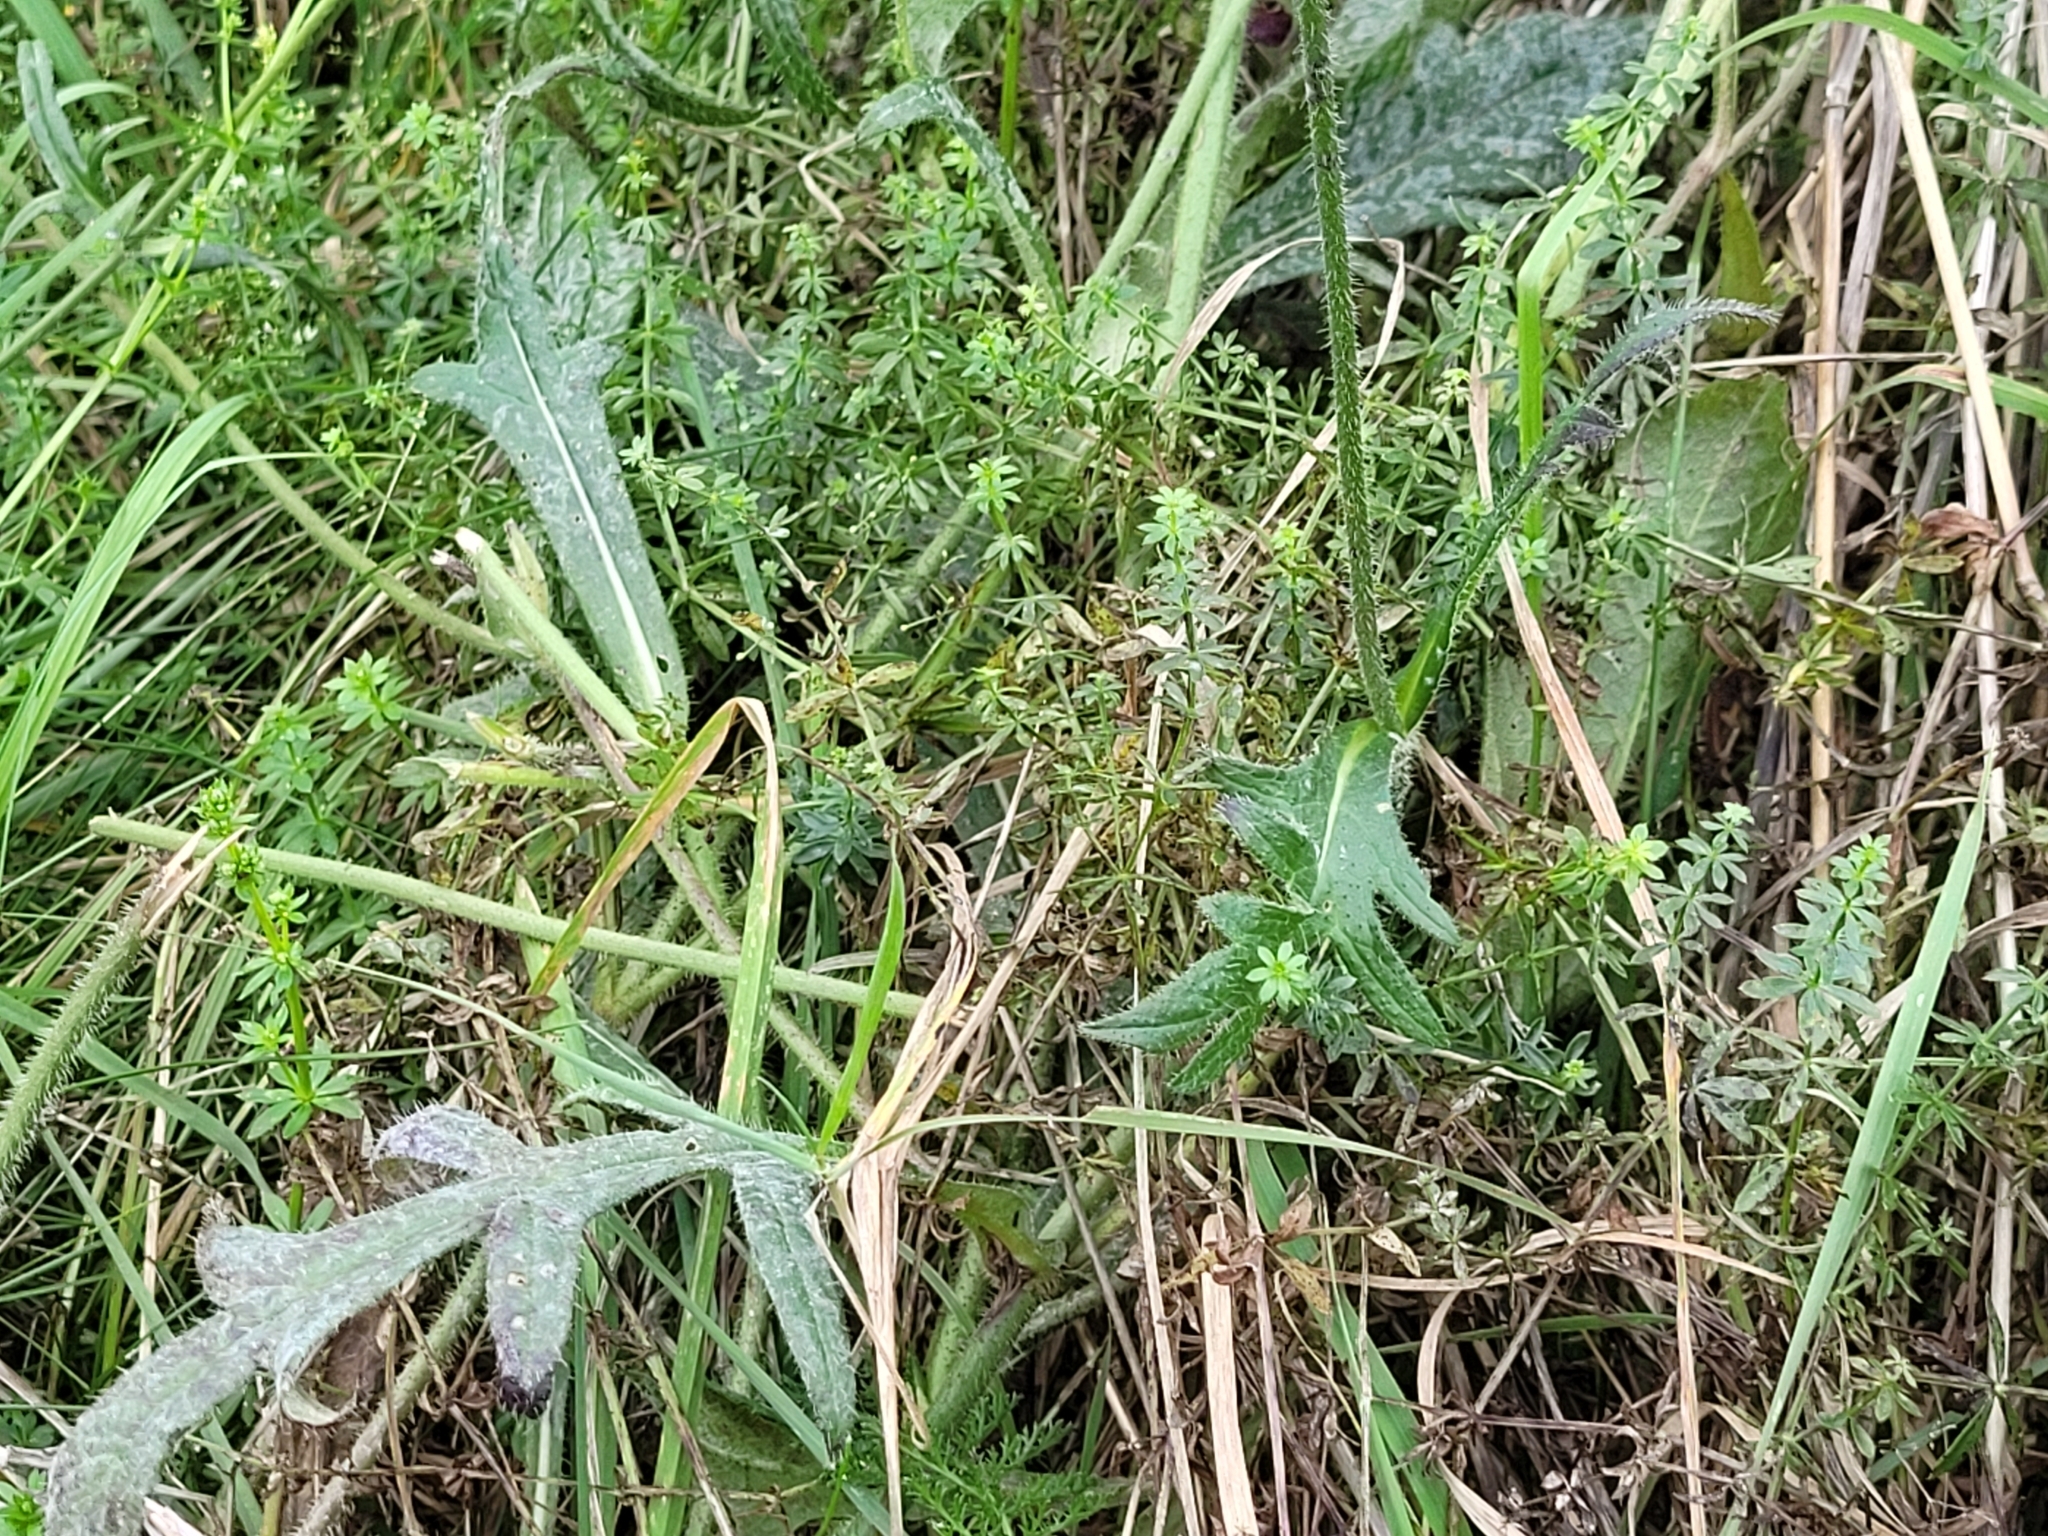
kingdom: Plantae
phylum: Tracheophyta
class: Magnoliopsida
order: Dipsacales
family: Caprifoliaceae
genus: Knautia
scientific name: Knautia arvensis
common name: Field scabiosa
